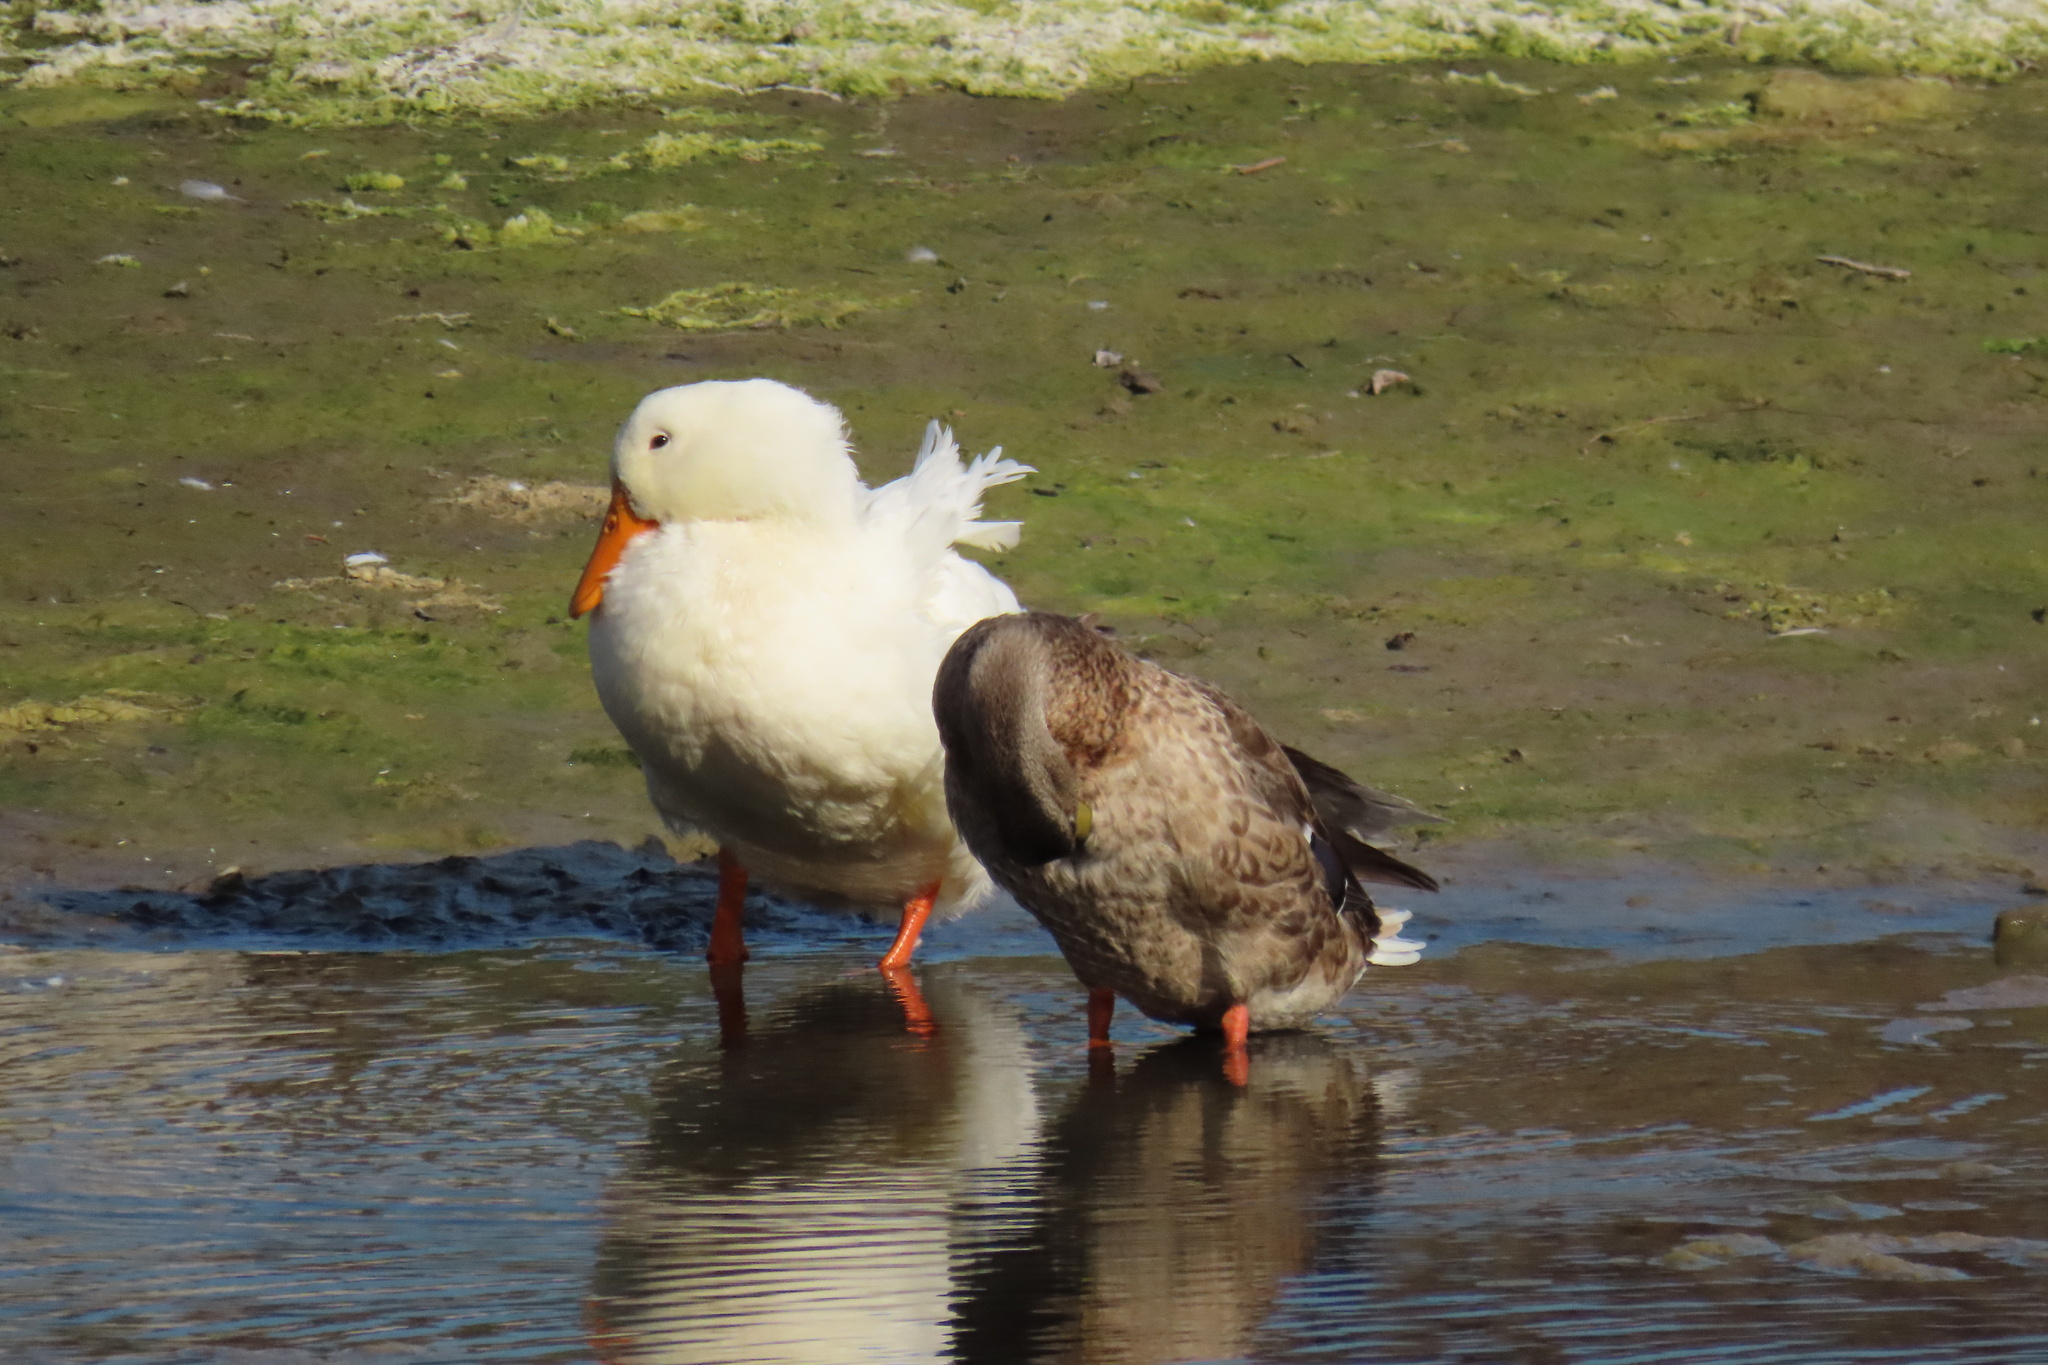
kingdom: Animalia
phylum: Chordata
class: Aves
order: Anseriformes
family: Anatidae
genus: Anas
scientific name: Anas platyrhynchos
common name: Mallard
